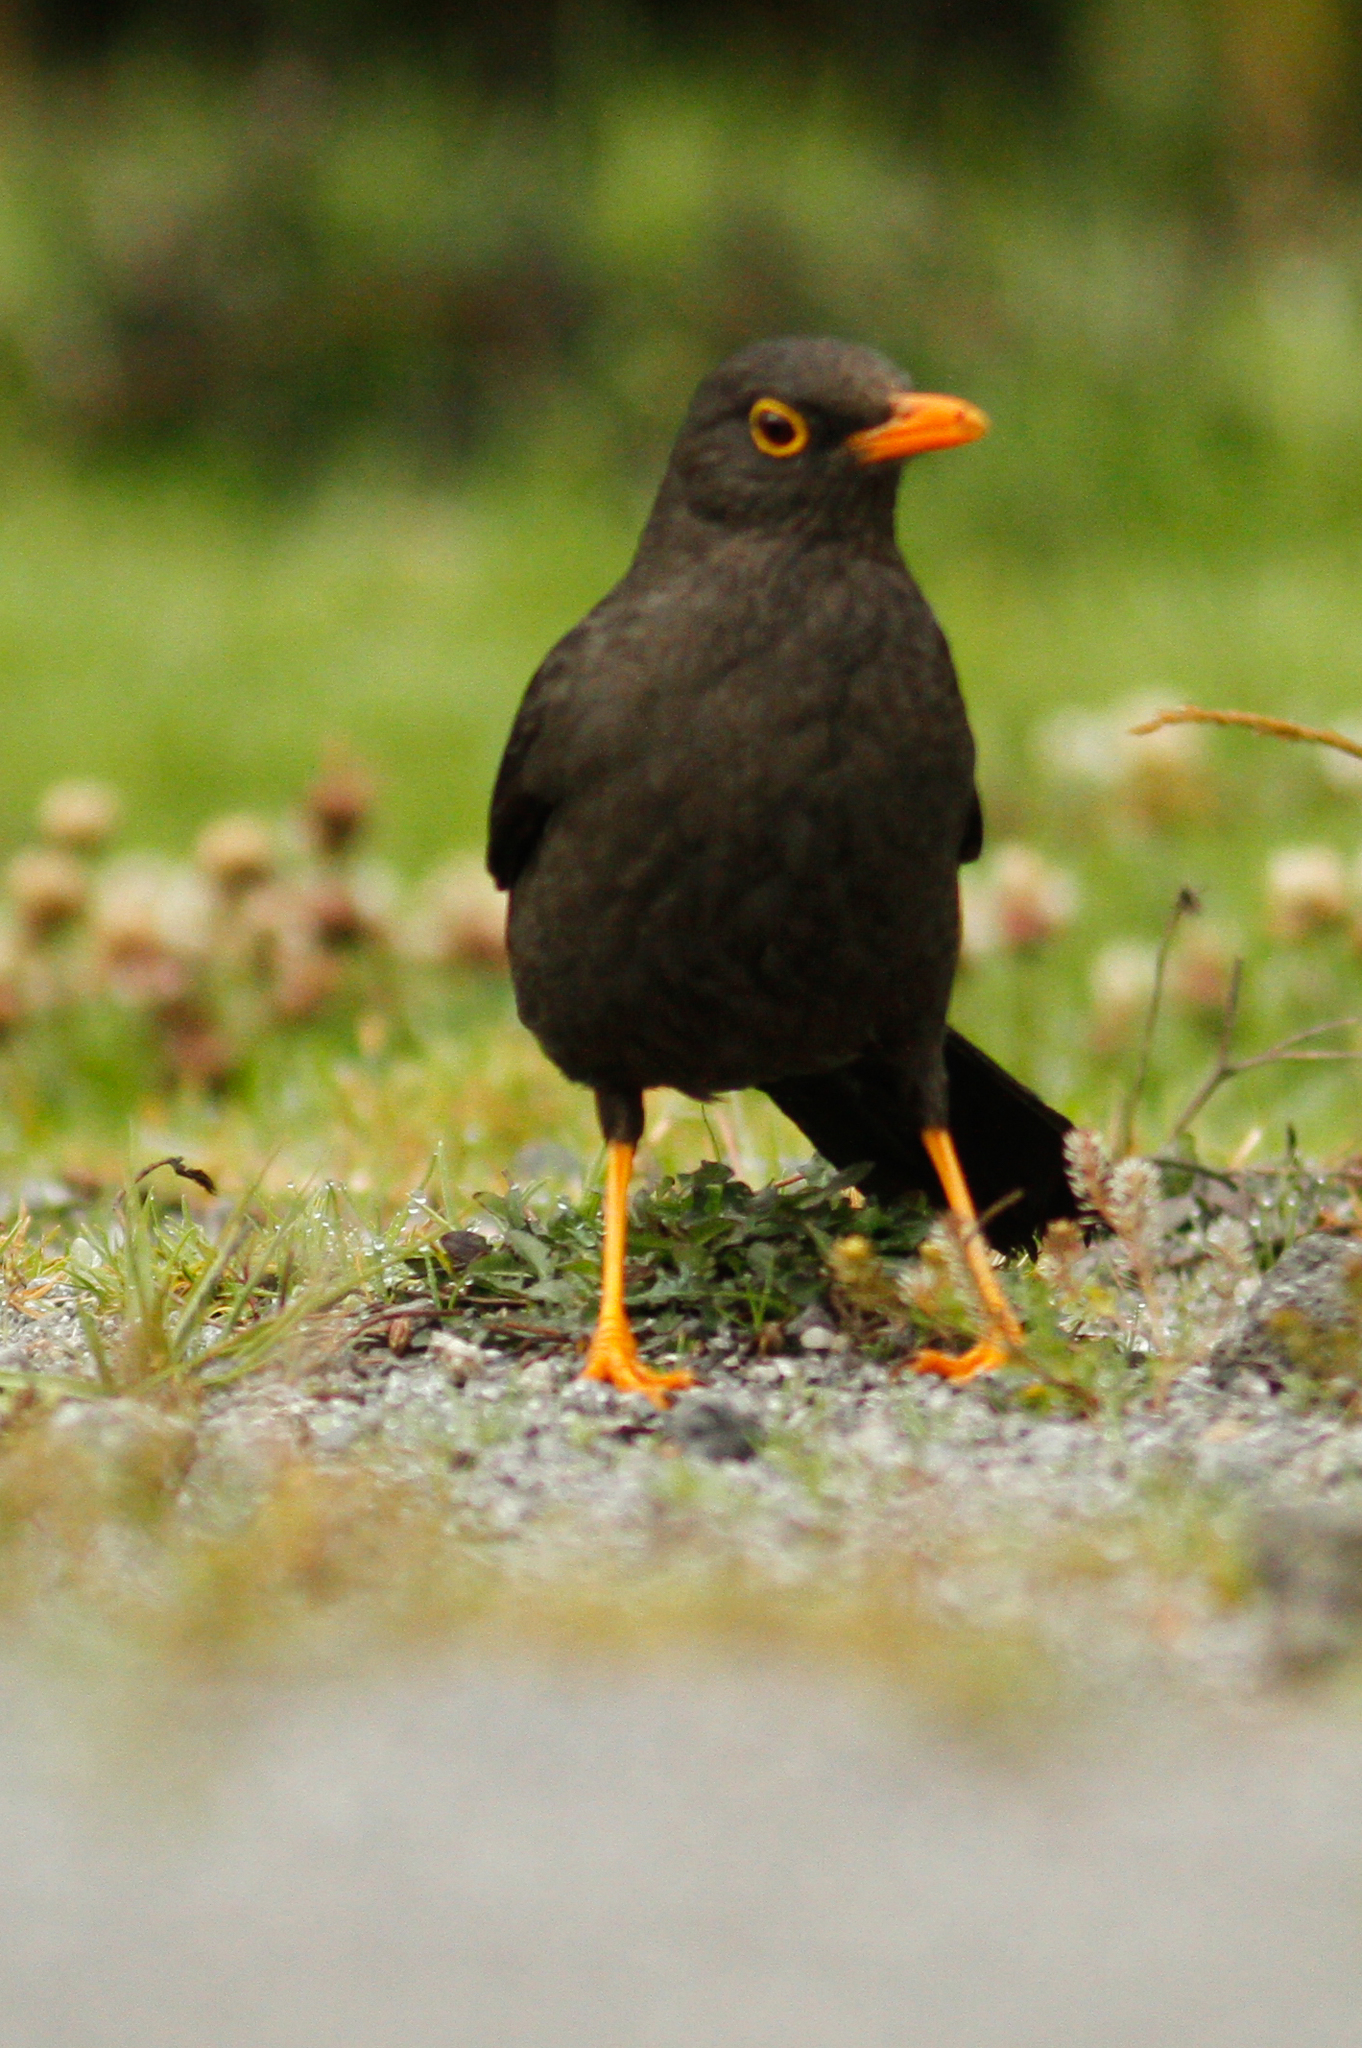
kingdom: Animalia
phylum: Chordata
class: Aves
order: Passeriformes
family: Turdidae
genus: Turdus
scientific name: Turdus fuscater
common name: Great thrush
